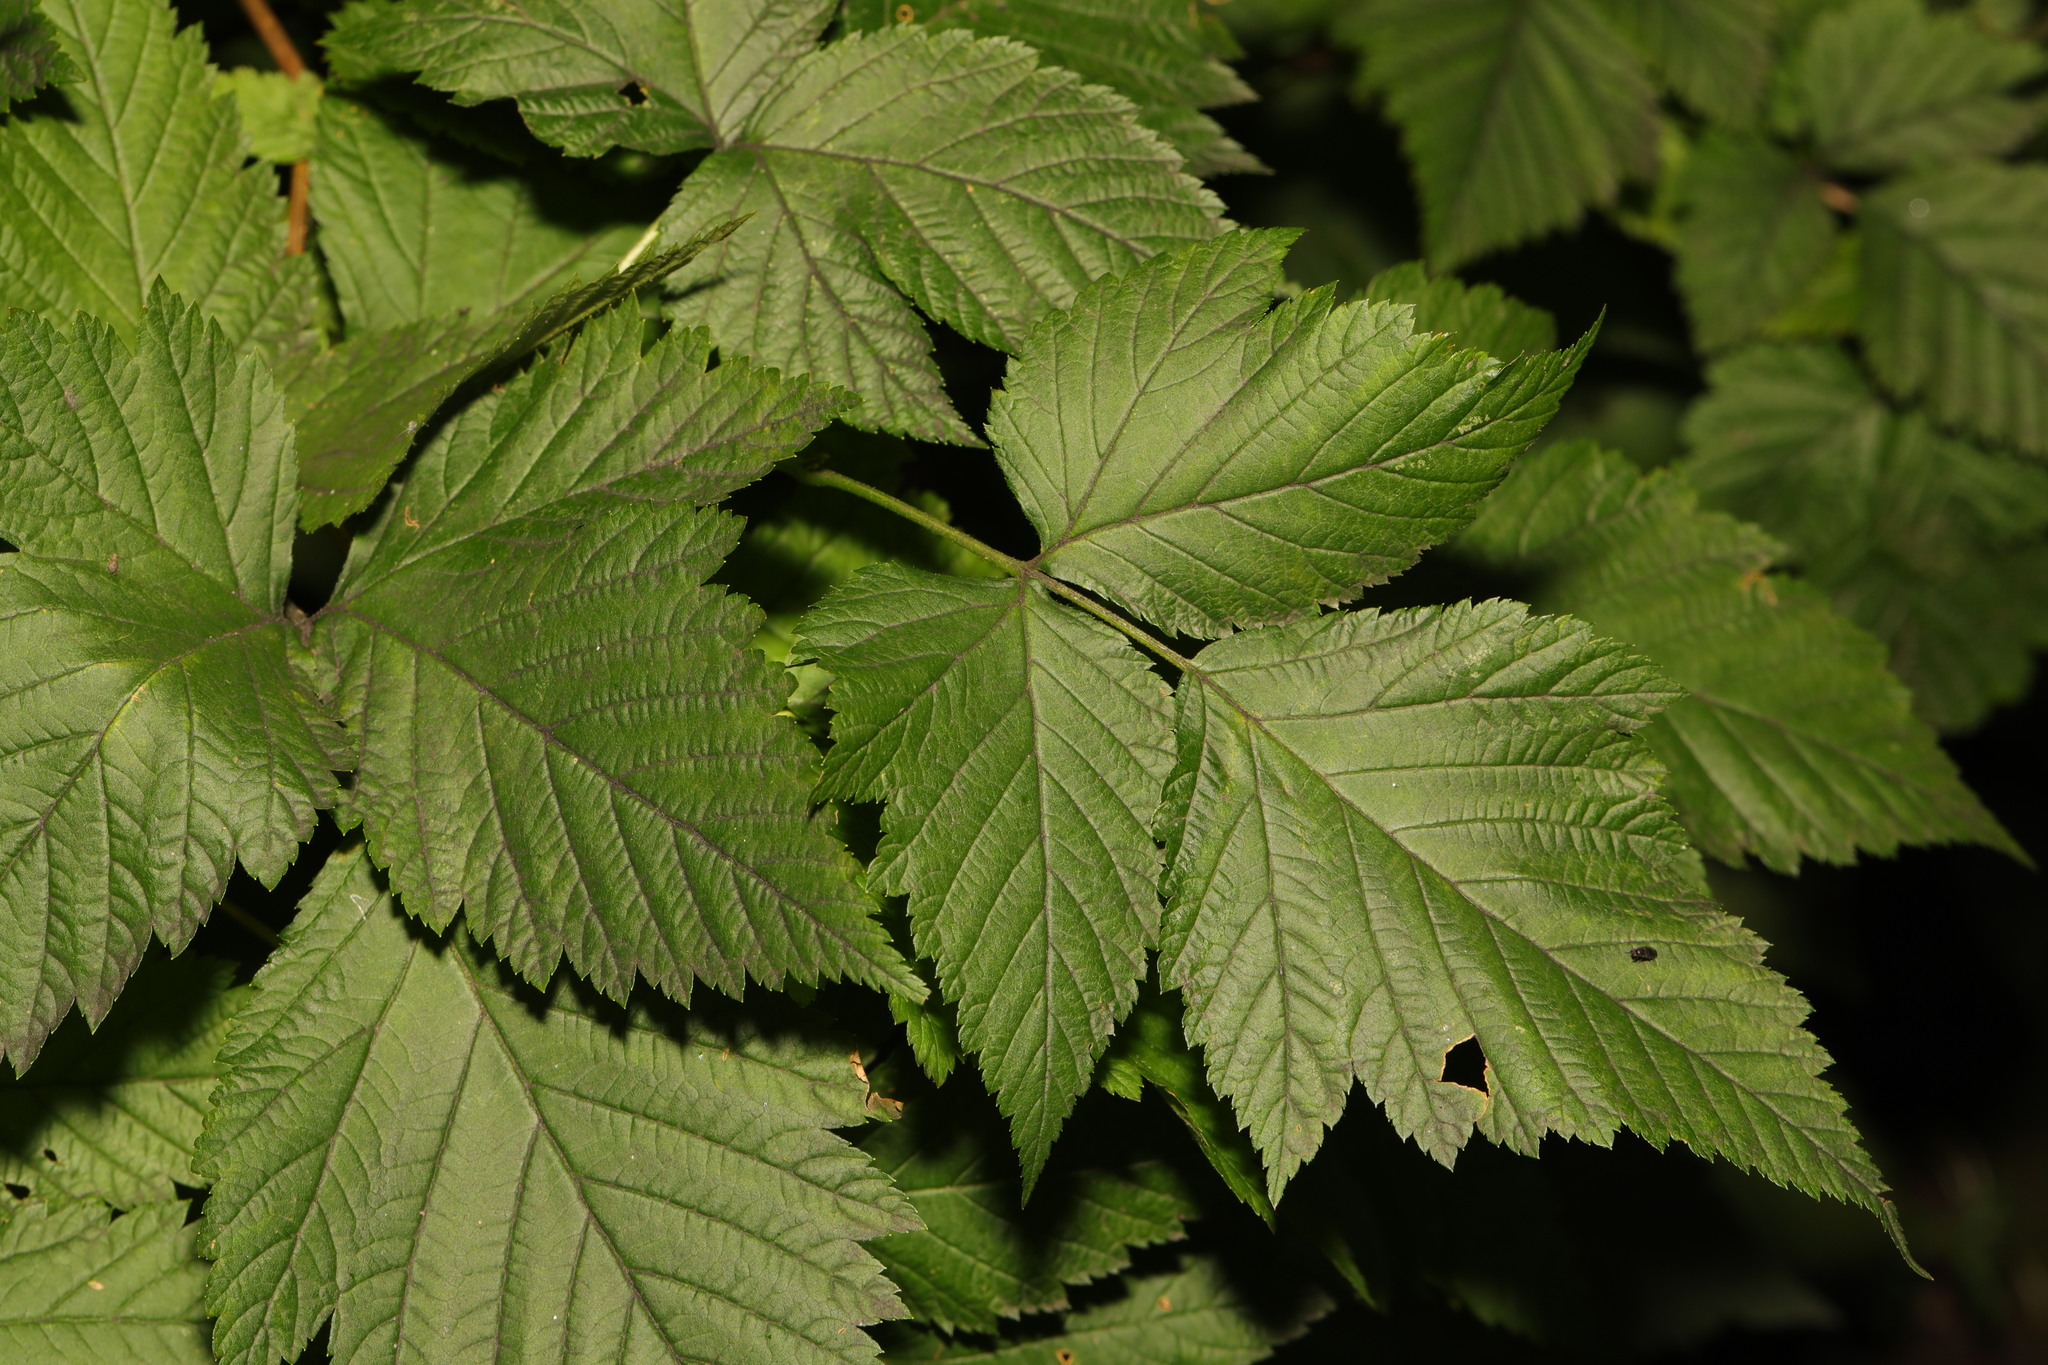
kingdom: Plantae
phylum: Tracheophyta
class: Magnoliopsida
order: Rosales
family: Rosaceae
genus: Rubus
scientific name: Rubus spectabilis
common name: Salmonberry
